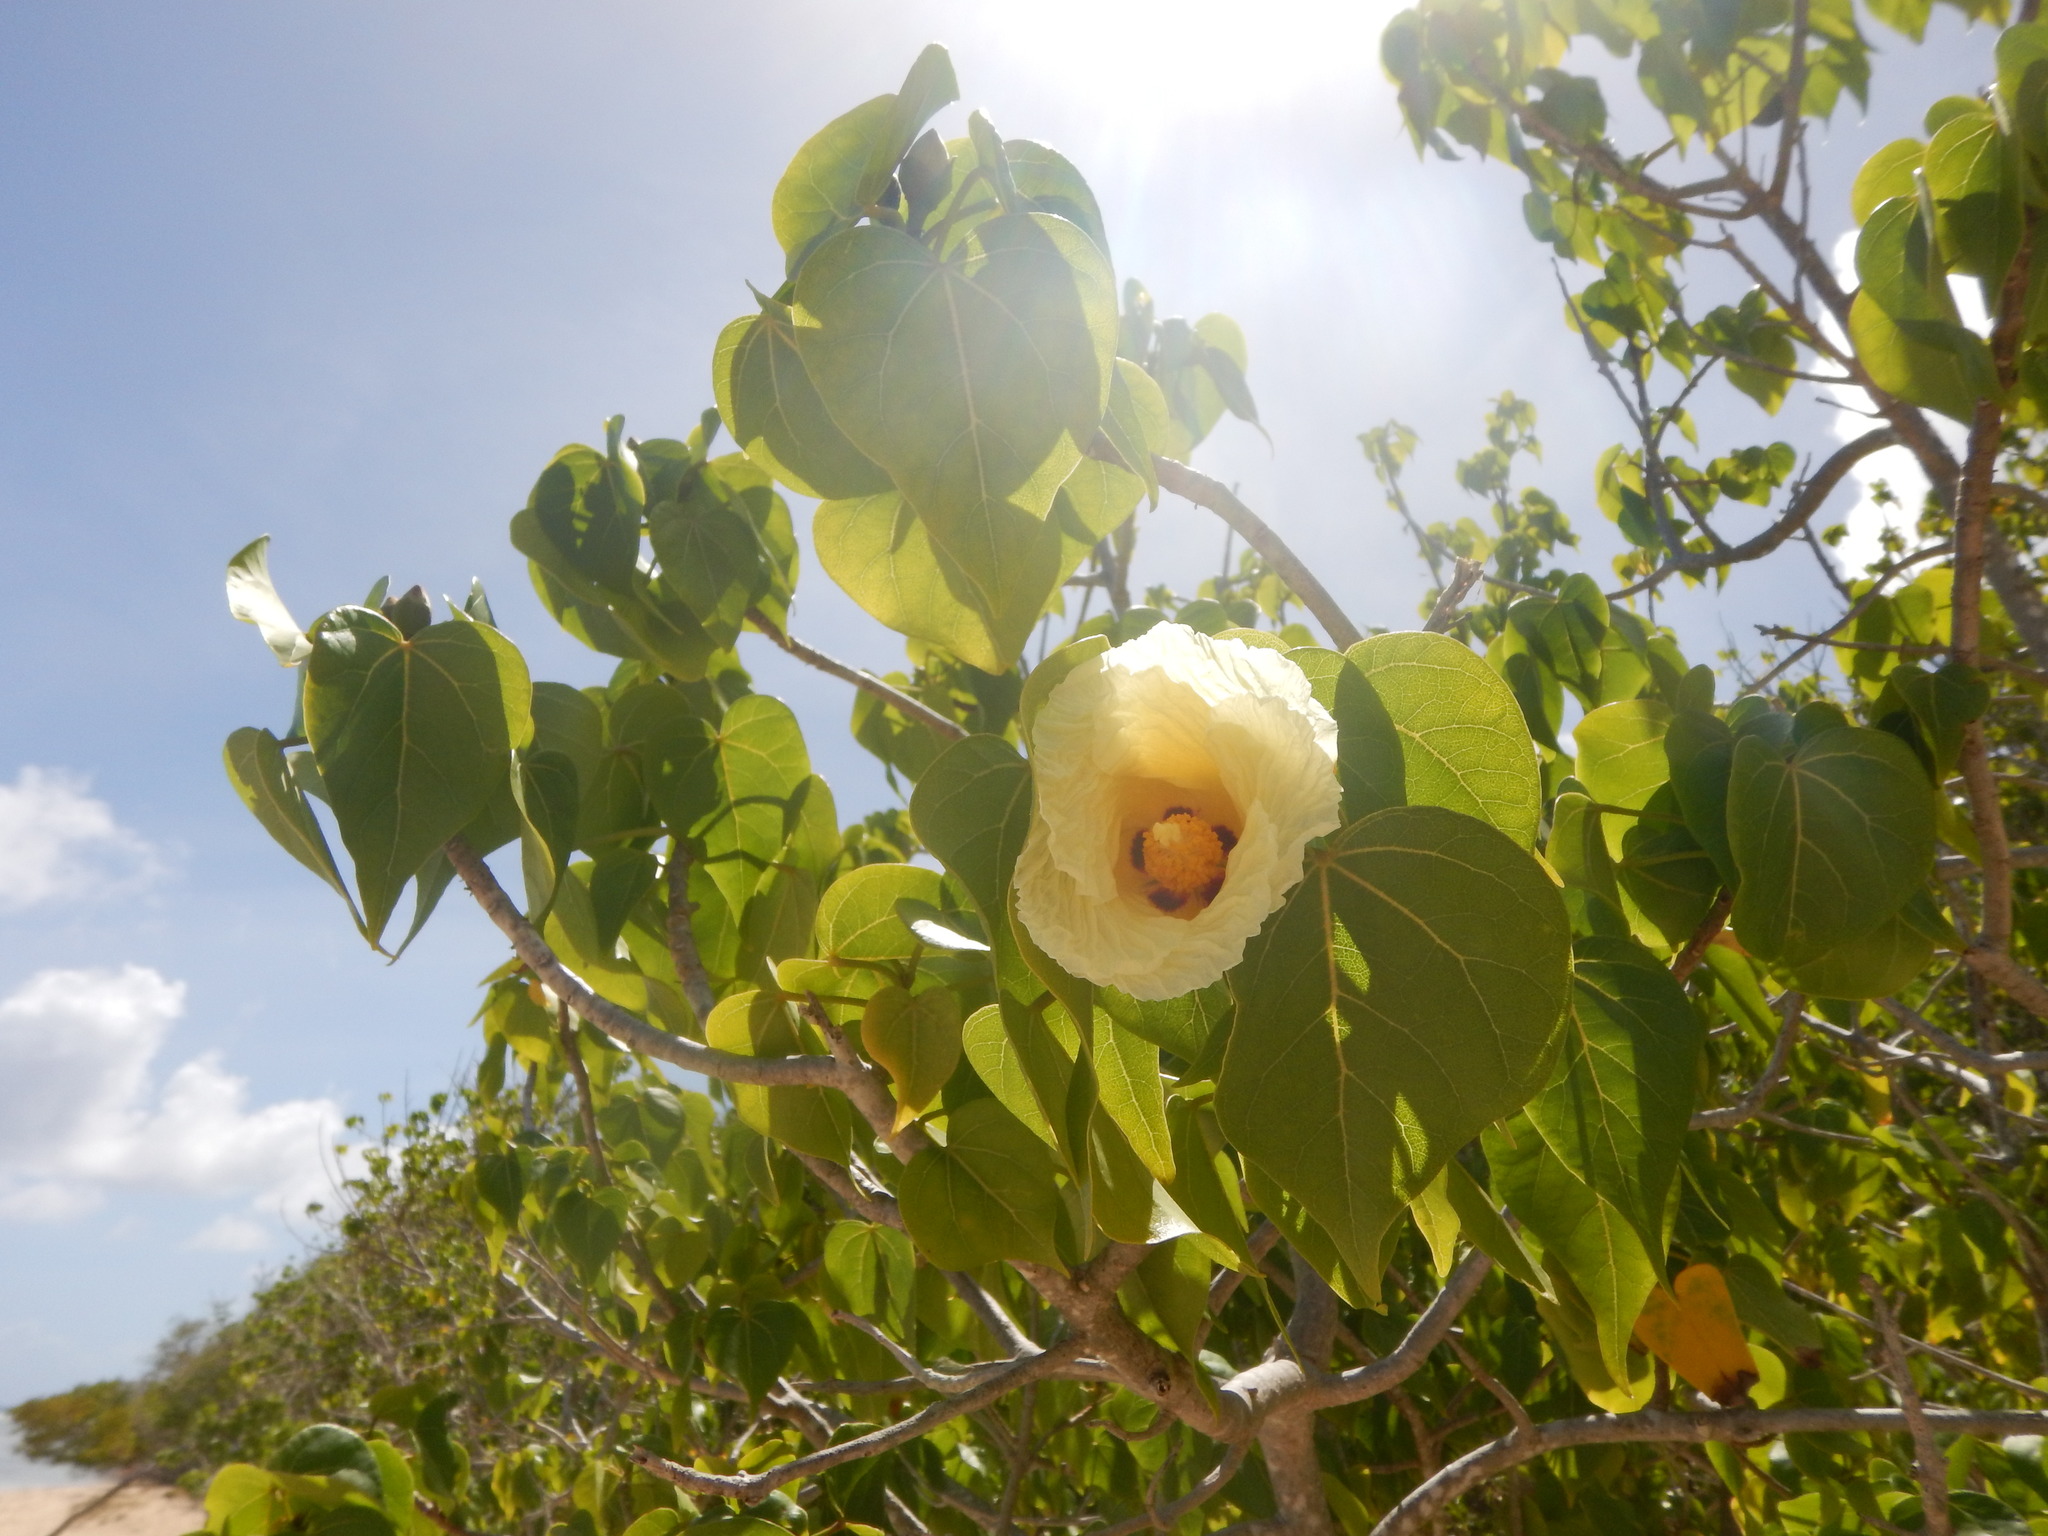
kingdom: Plantae
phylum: Tracheophyta
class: Magnoliopsida
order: Malvales
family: Malvaceae
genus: Thespesia
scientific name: Thespesia populnea
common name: Seaside mahoe
